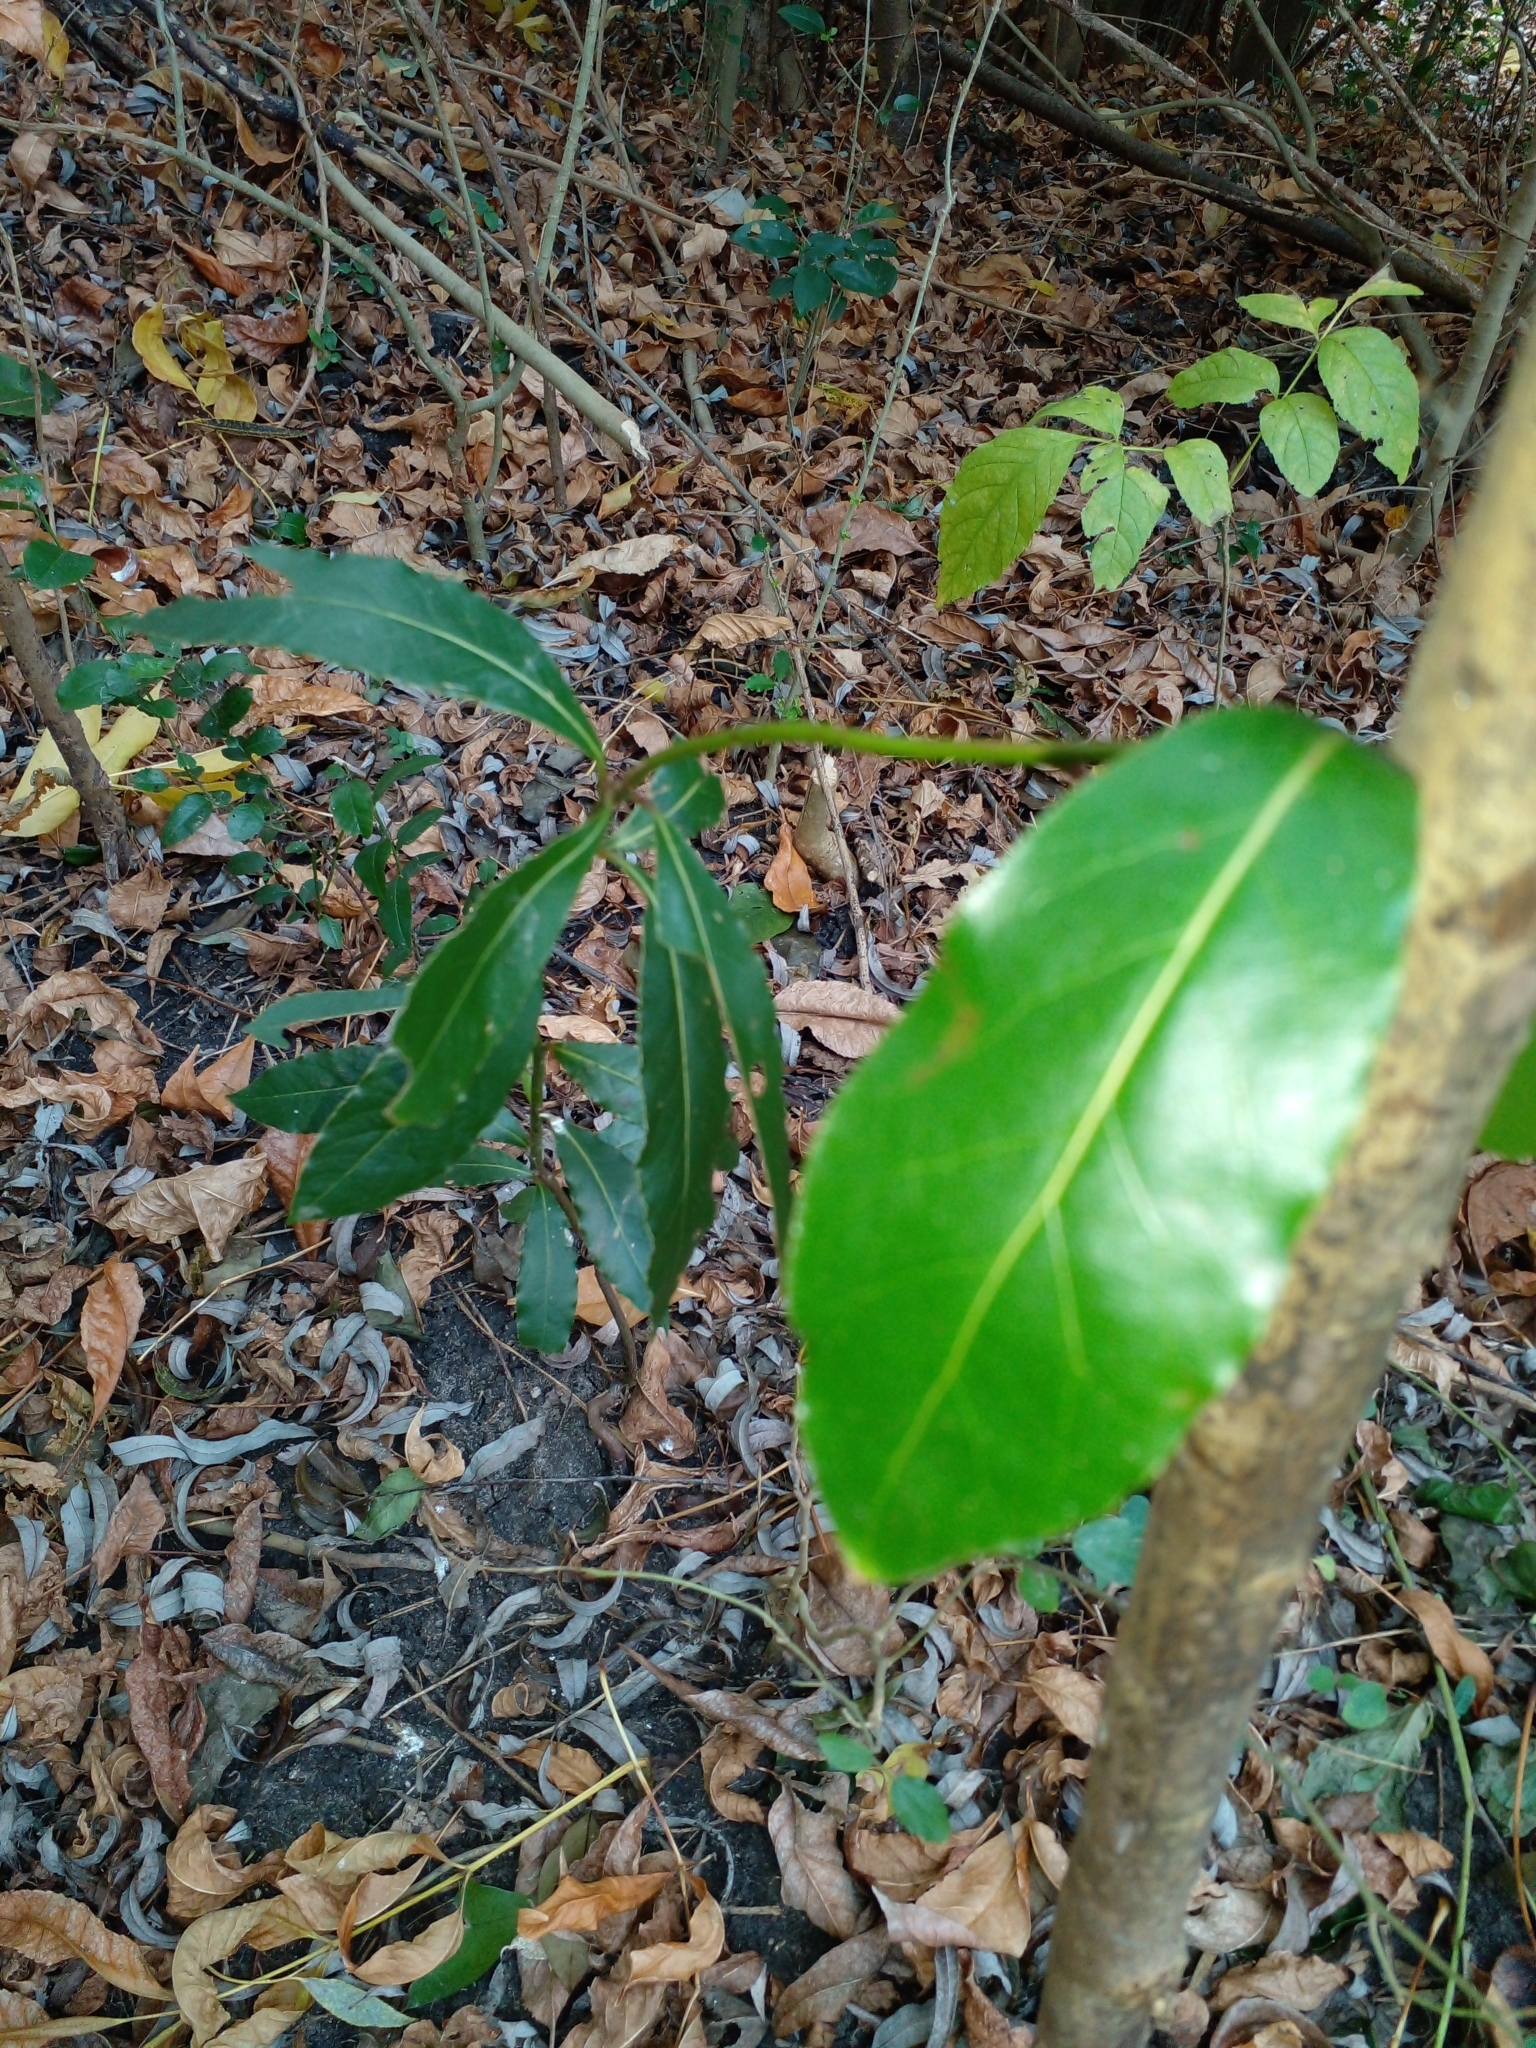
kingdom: Plantae
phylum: Tracheophyta
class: Magnoliopsida
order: Laurales
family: Lauraceae
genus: Laurus
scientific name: Laurus nobilis
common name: Bay
